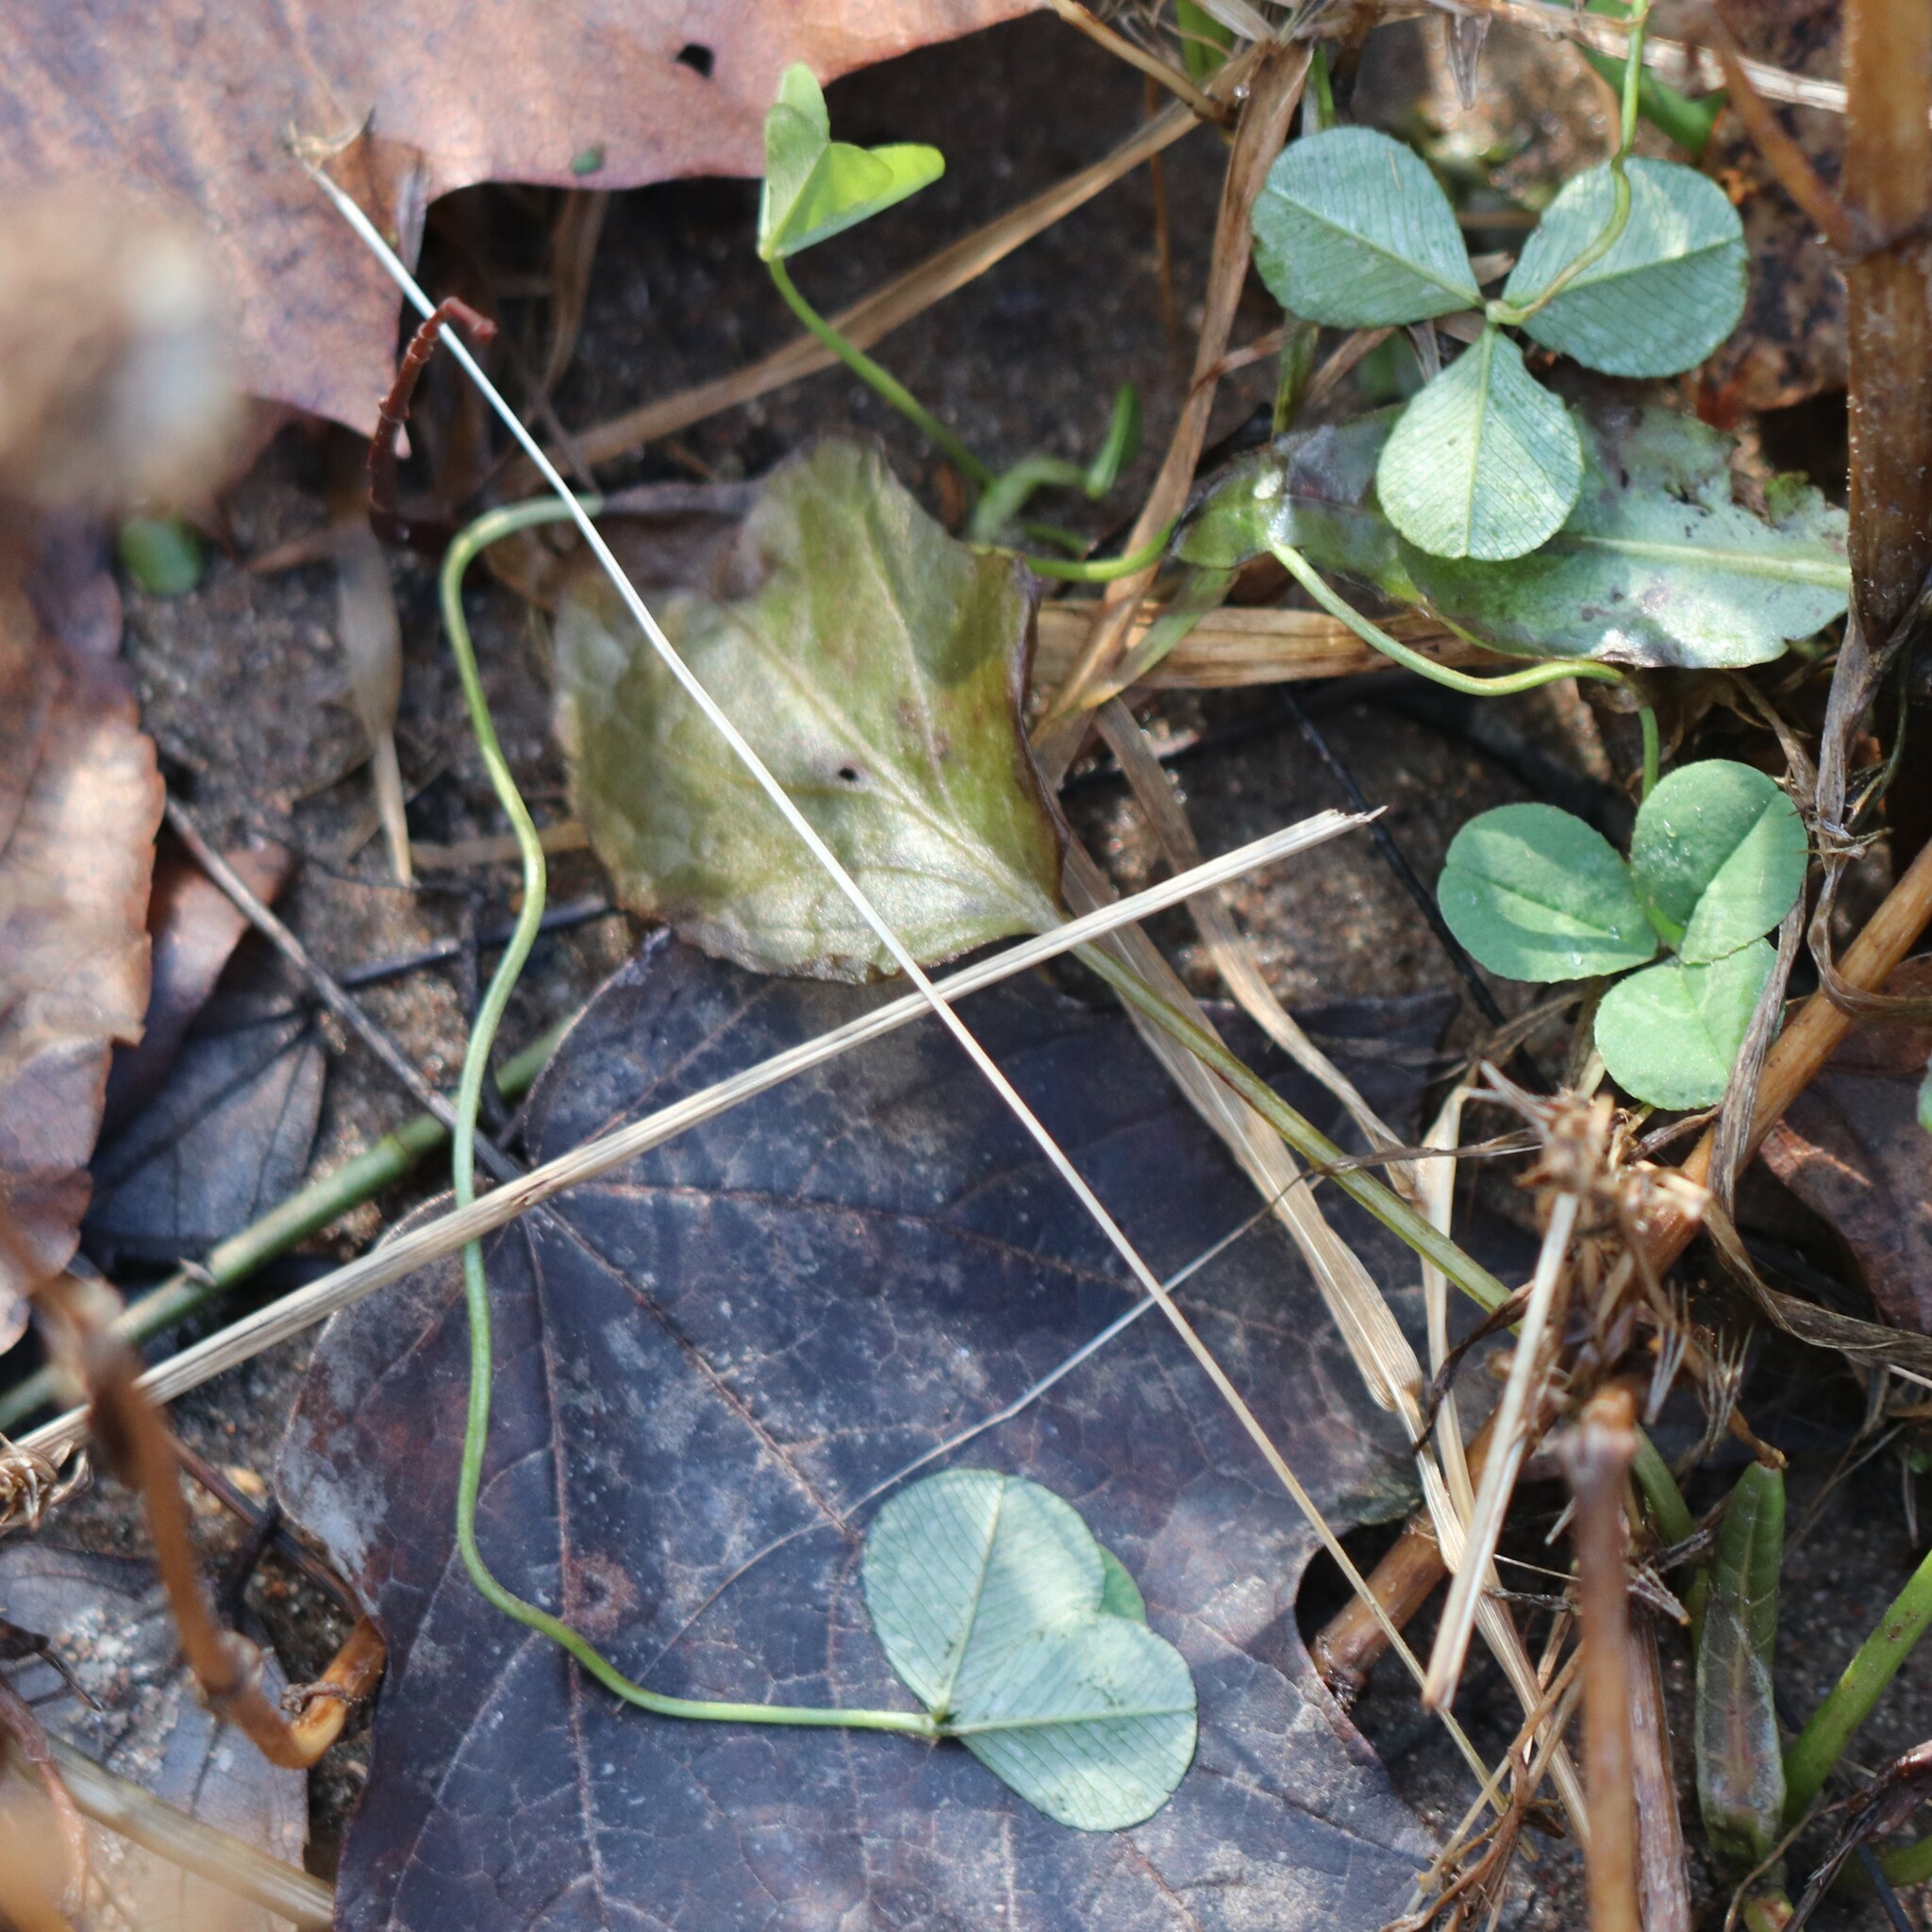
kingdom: Plantae
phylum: Tracheophyta
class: Magnoliopsida
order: Fabales
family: Fabaceae
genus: Trifolium
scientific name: Trifolium repens
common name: White clover
